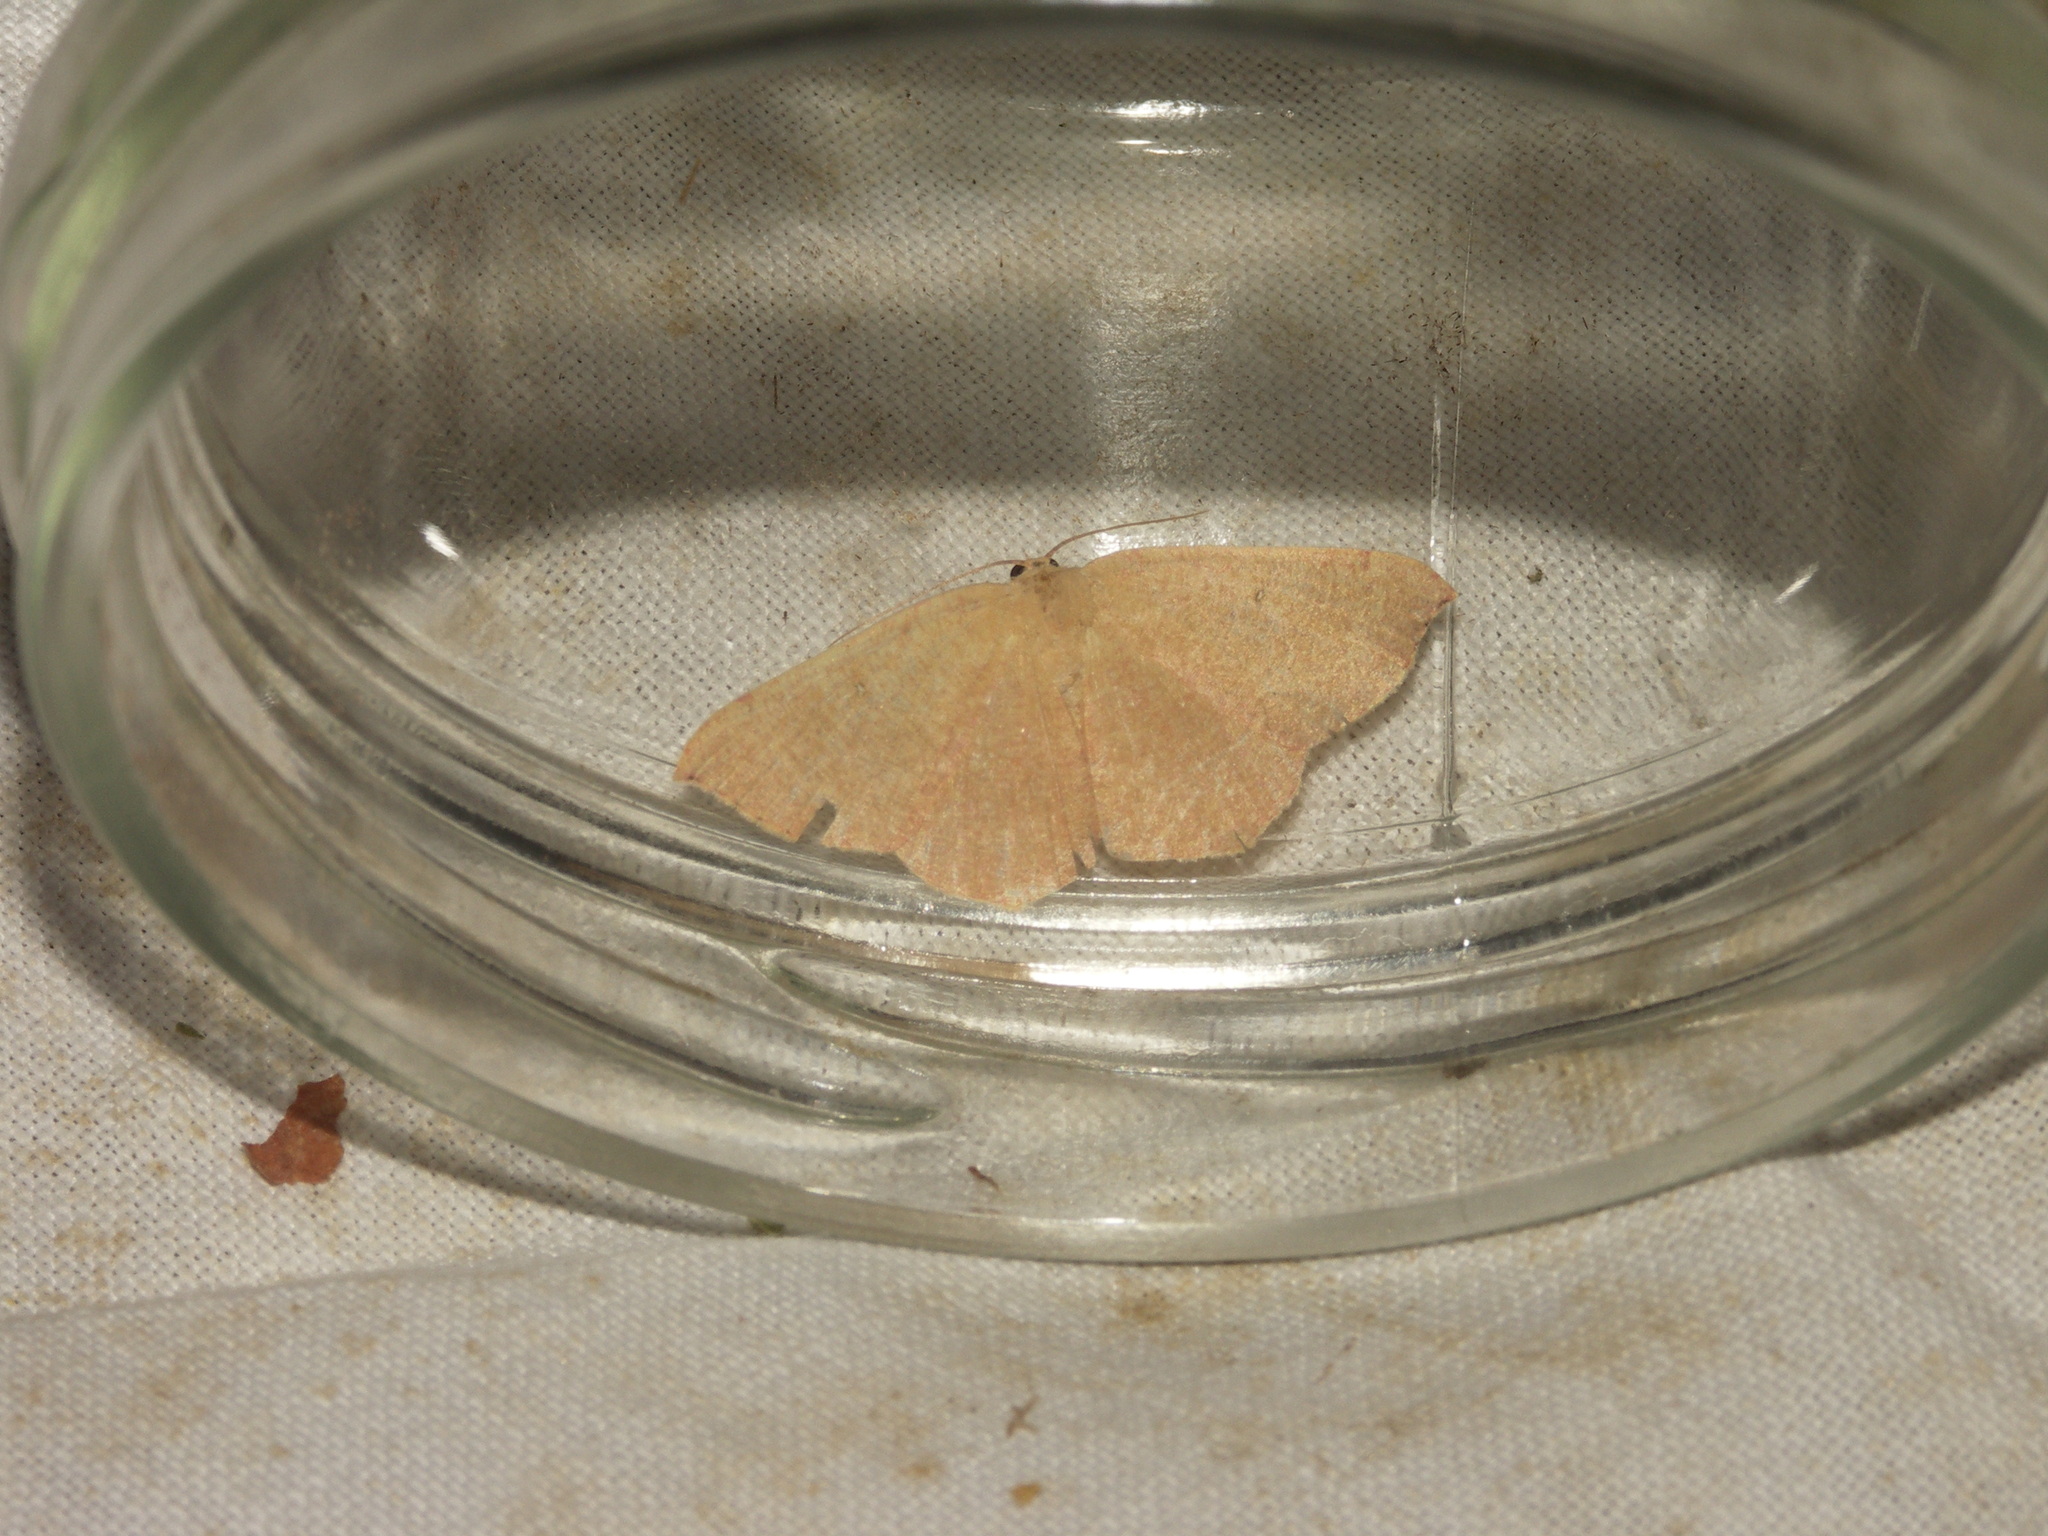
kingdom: Animalia
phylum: Arthropoda
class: Insecta
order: Lepidoptera
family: Geometridae
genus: Cyclophora
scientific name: Cyclophora puppillaria
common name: Blair's mocha
